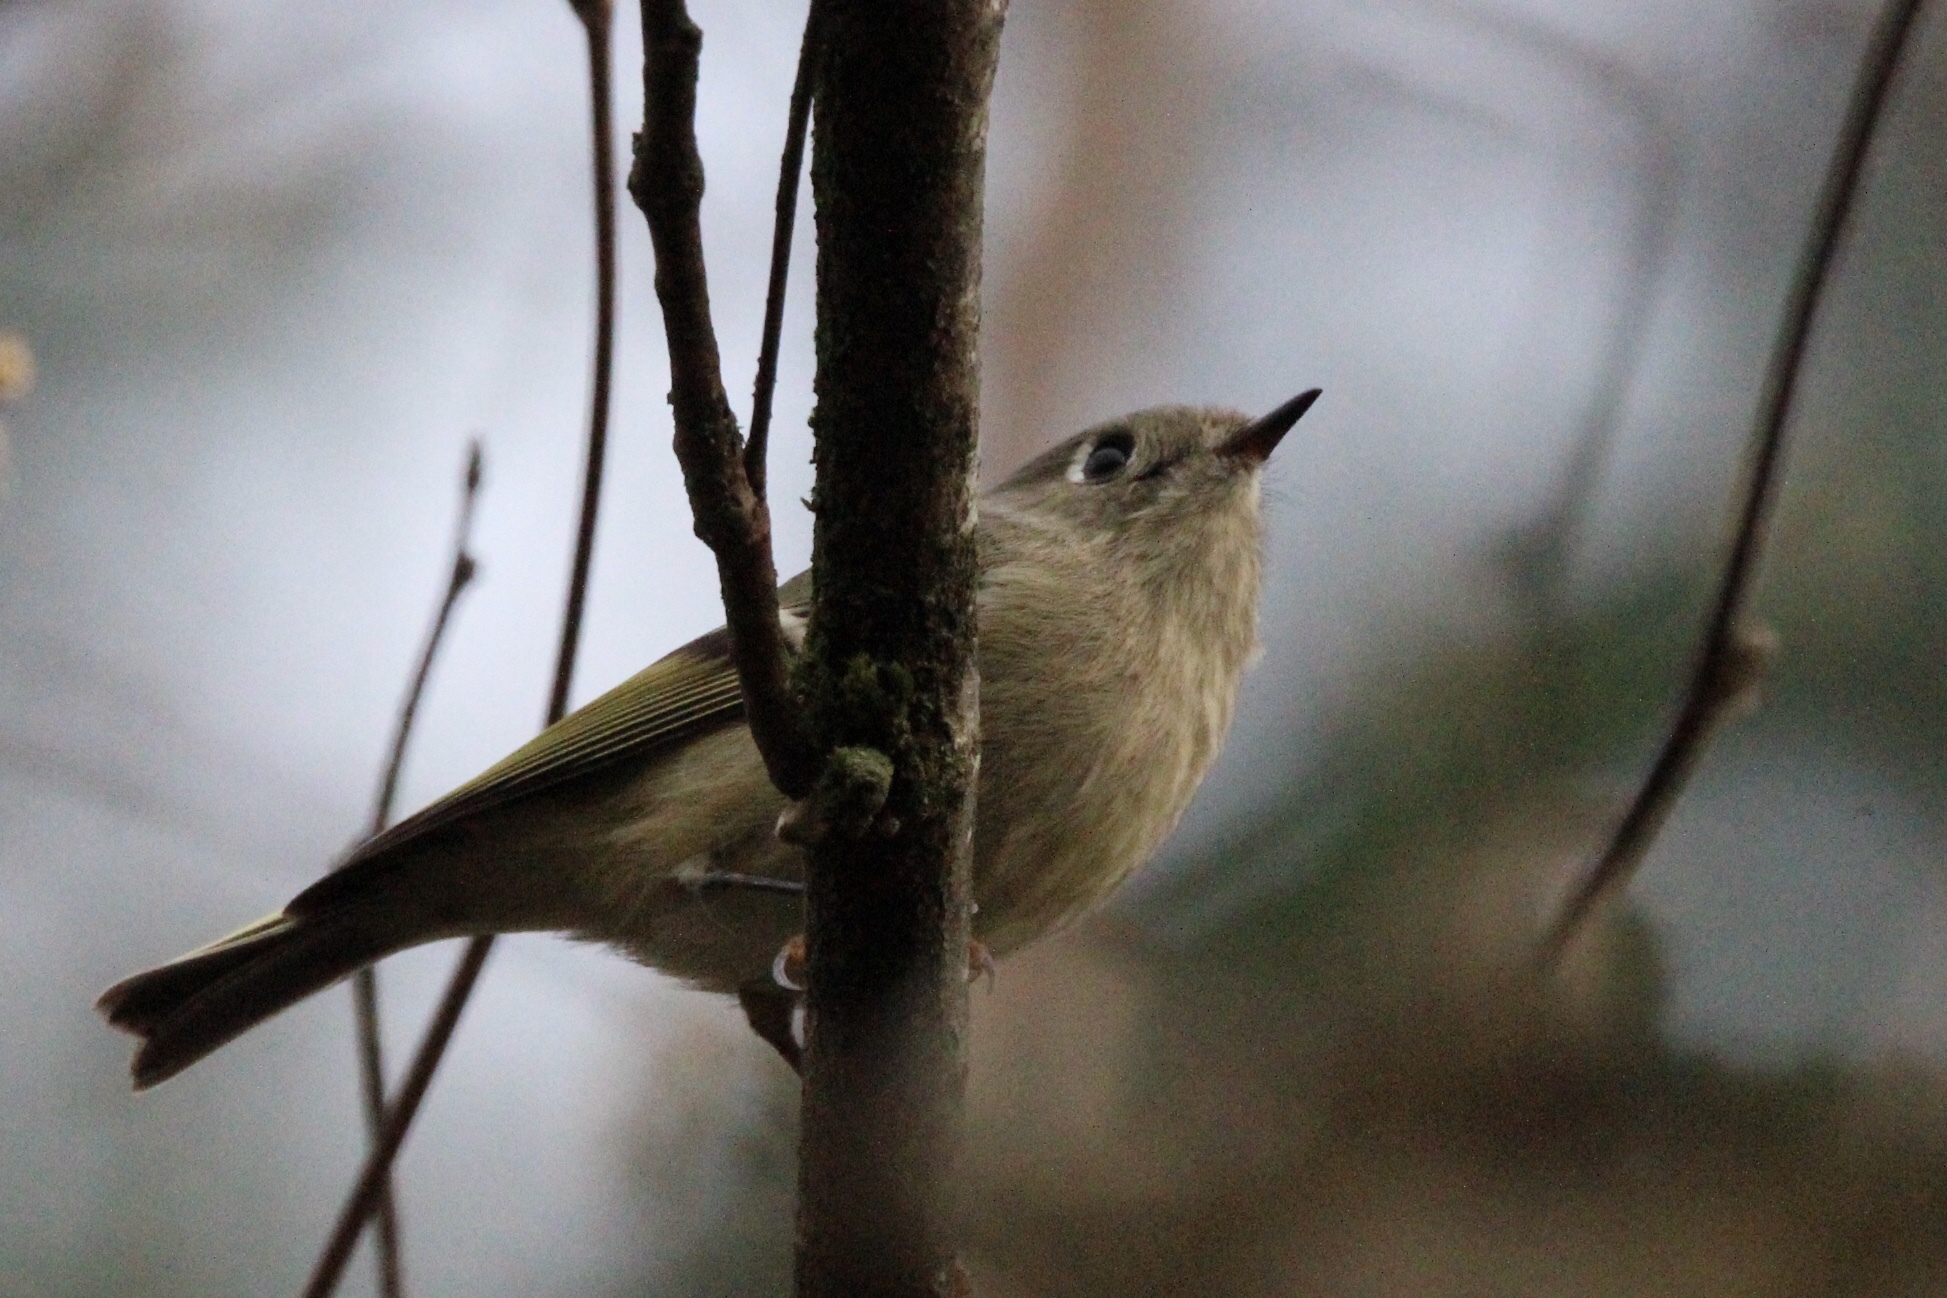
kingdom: Animalia
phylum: Chordata
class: Aves
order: Passeriformes
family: Regulidae
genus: Regulus
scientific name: Regulus calendula
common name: Ruby-crowned kinglet
